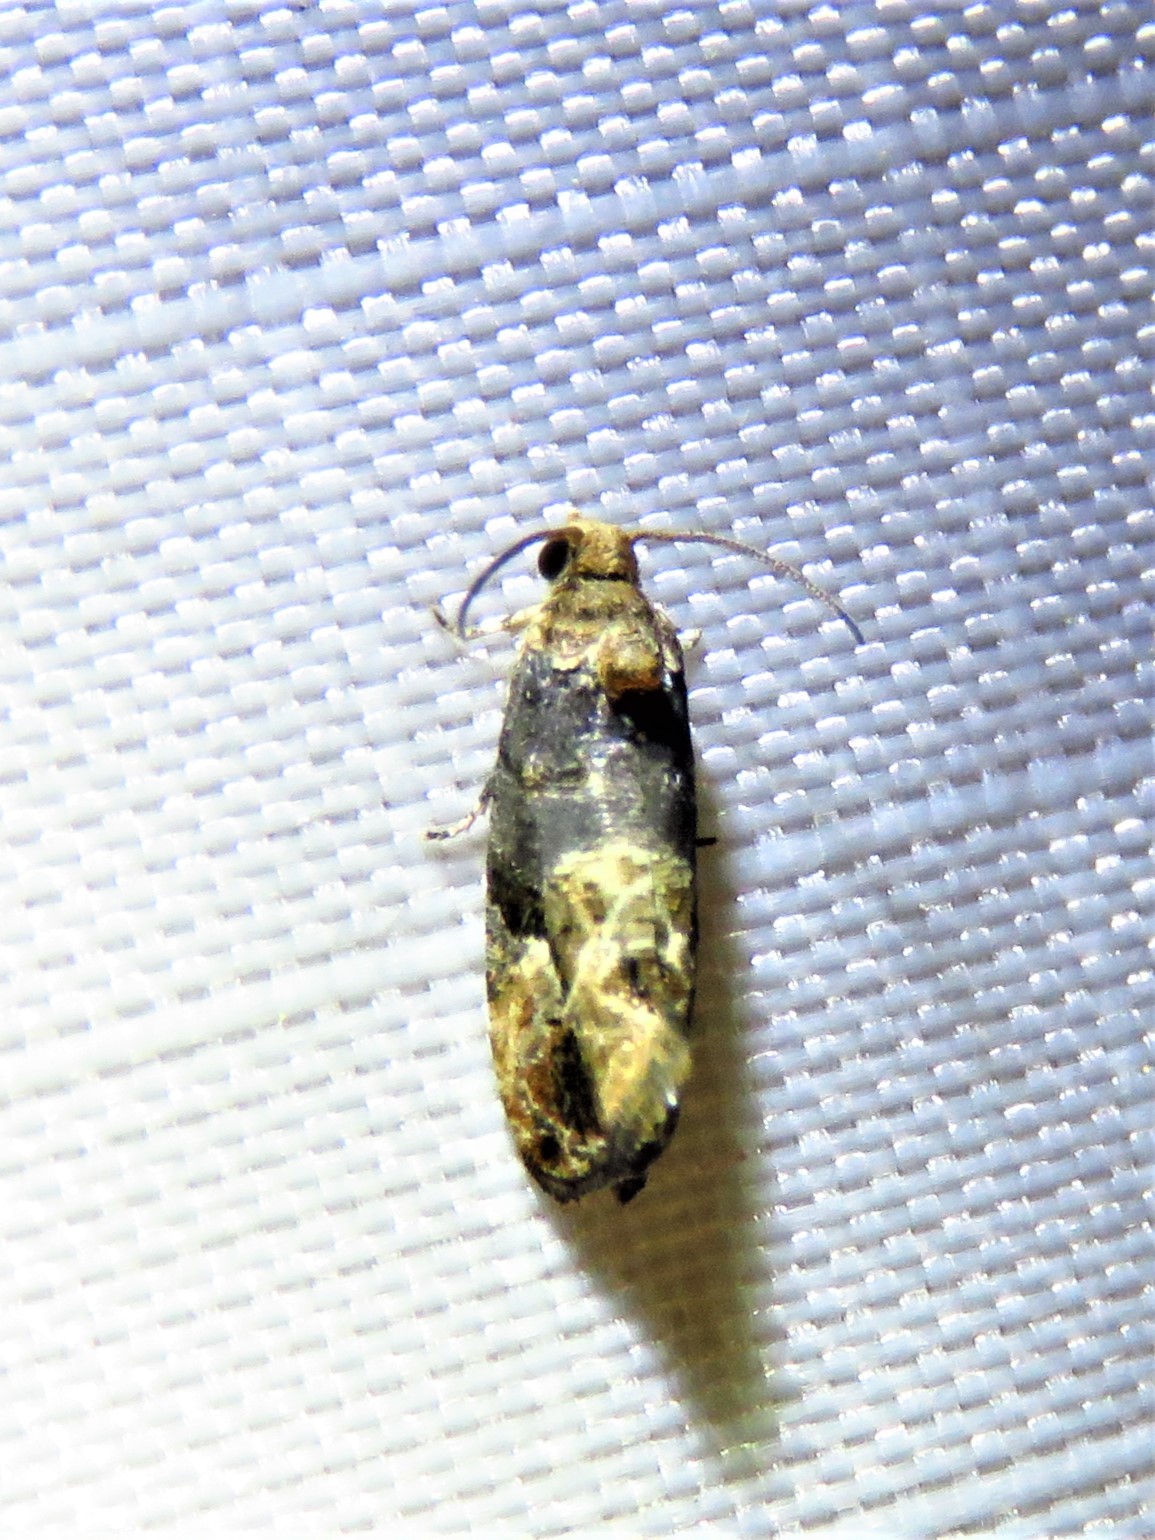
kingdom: Animalia
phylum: Arthropoda
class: Insecta
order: Lepidoptera
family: Tortricidae
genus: Paralobesia
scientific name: Paralobesia viteana
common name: Grape berry moth
